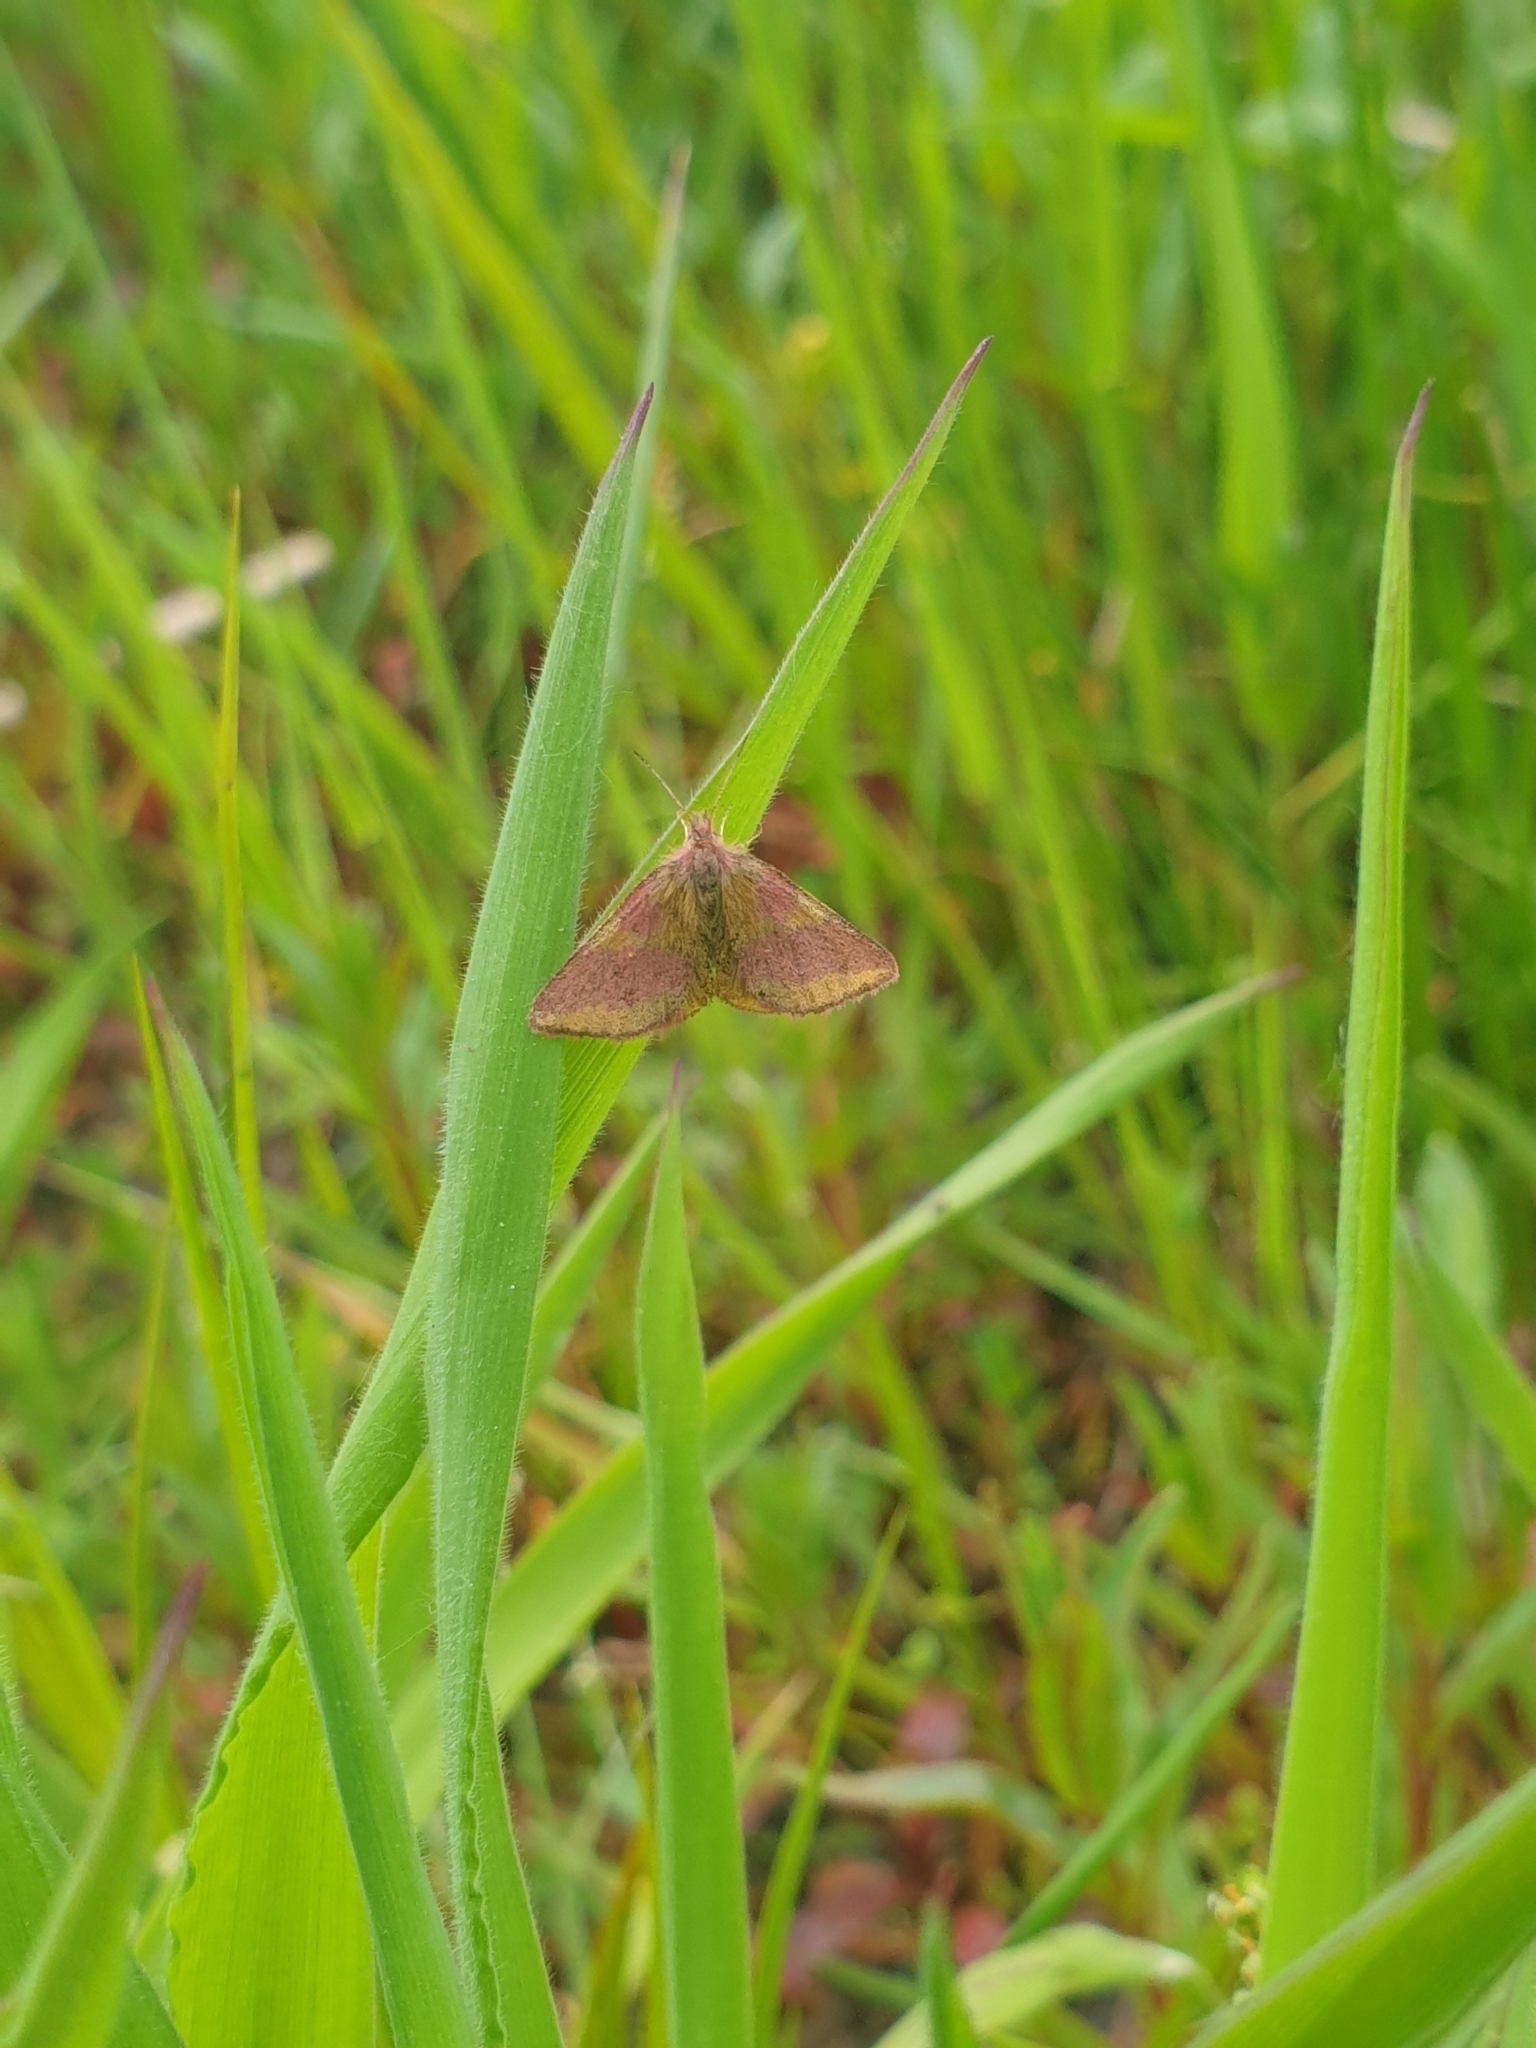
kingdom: Animalia
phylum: Arthropoda
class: Insecta
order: Lepidoptera
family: Geometridae
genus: Lythria
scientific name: Lythria cruentaria
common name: Purple-barred yellow
